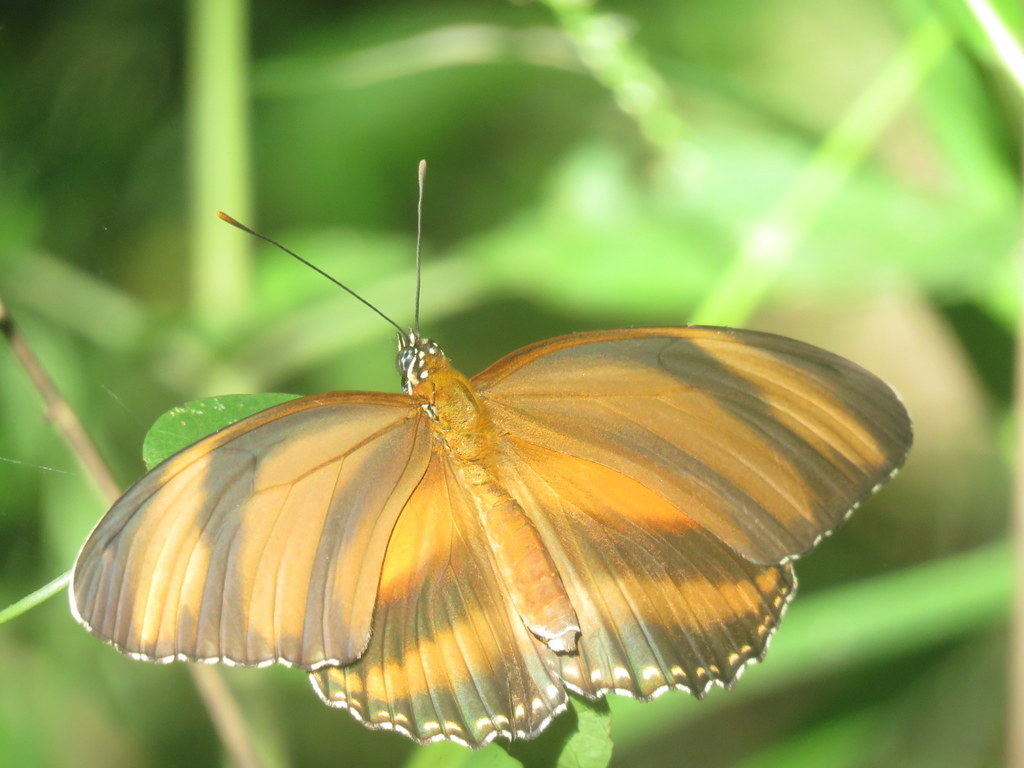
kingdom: Animalia
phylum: Arthropoda
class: Insecta
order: Lepidoptera
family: Nymphalidae
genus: Dryadula
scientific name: Dryadula phaetusa
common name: Banded orange heliconian
